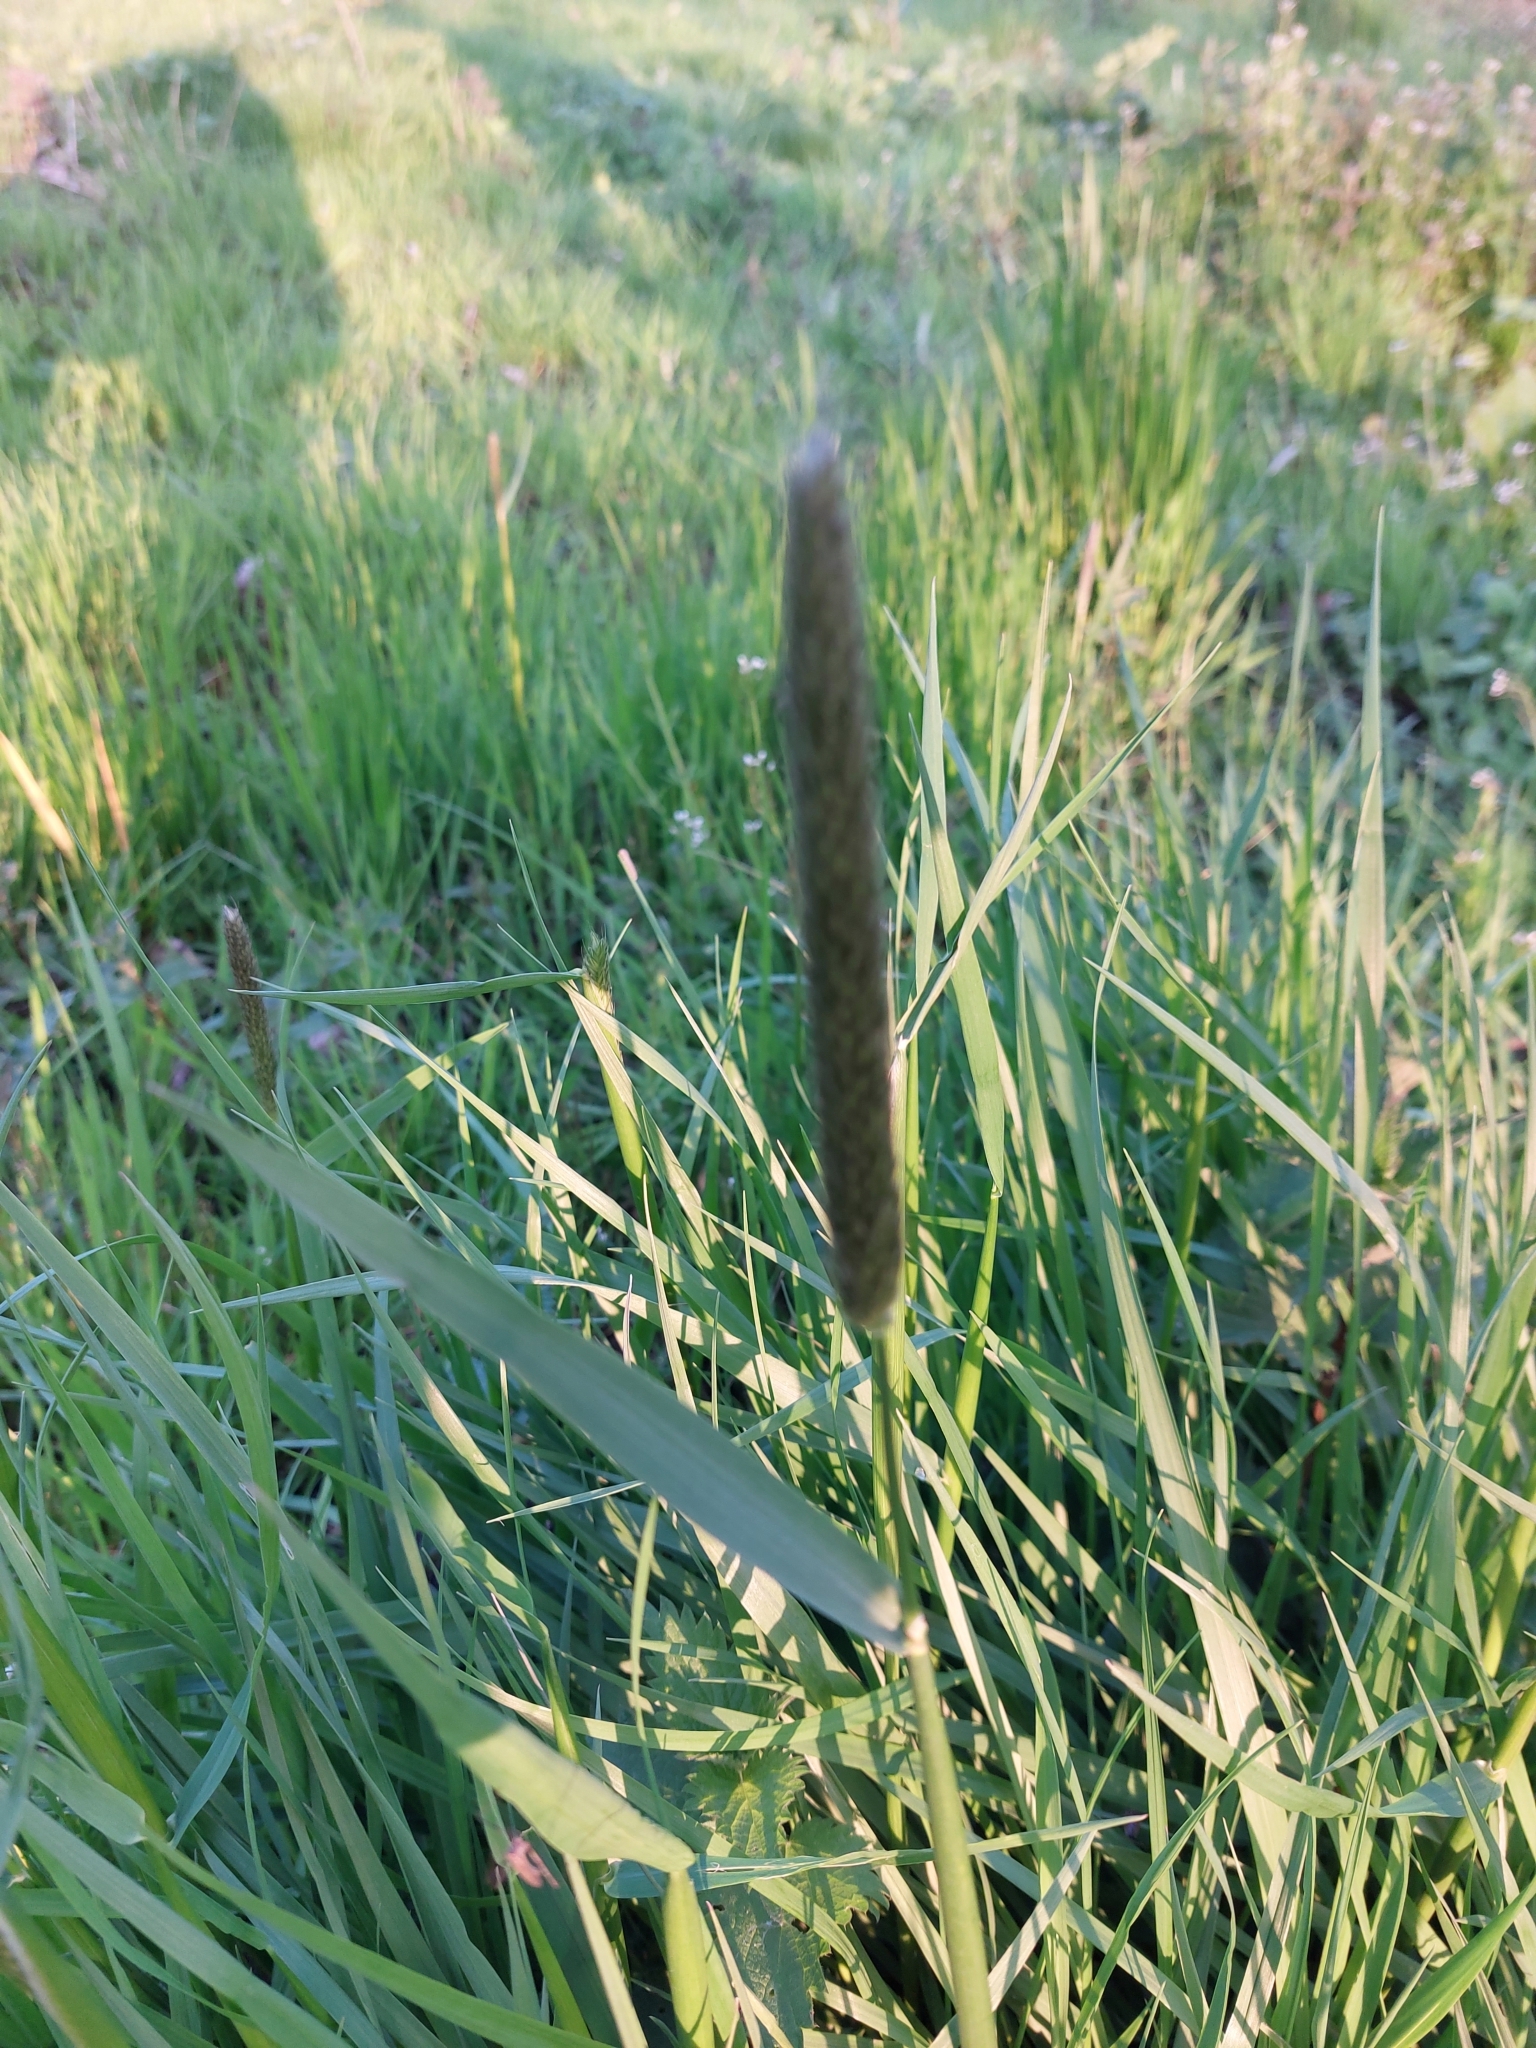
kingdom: Plantae
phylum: Tracheophyta
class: Liliopsida
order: Poales
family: Poaceae
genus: Alopecurus
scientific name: Alopecurus pratensis
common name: Meadow foxtail
